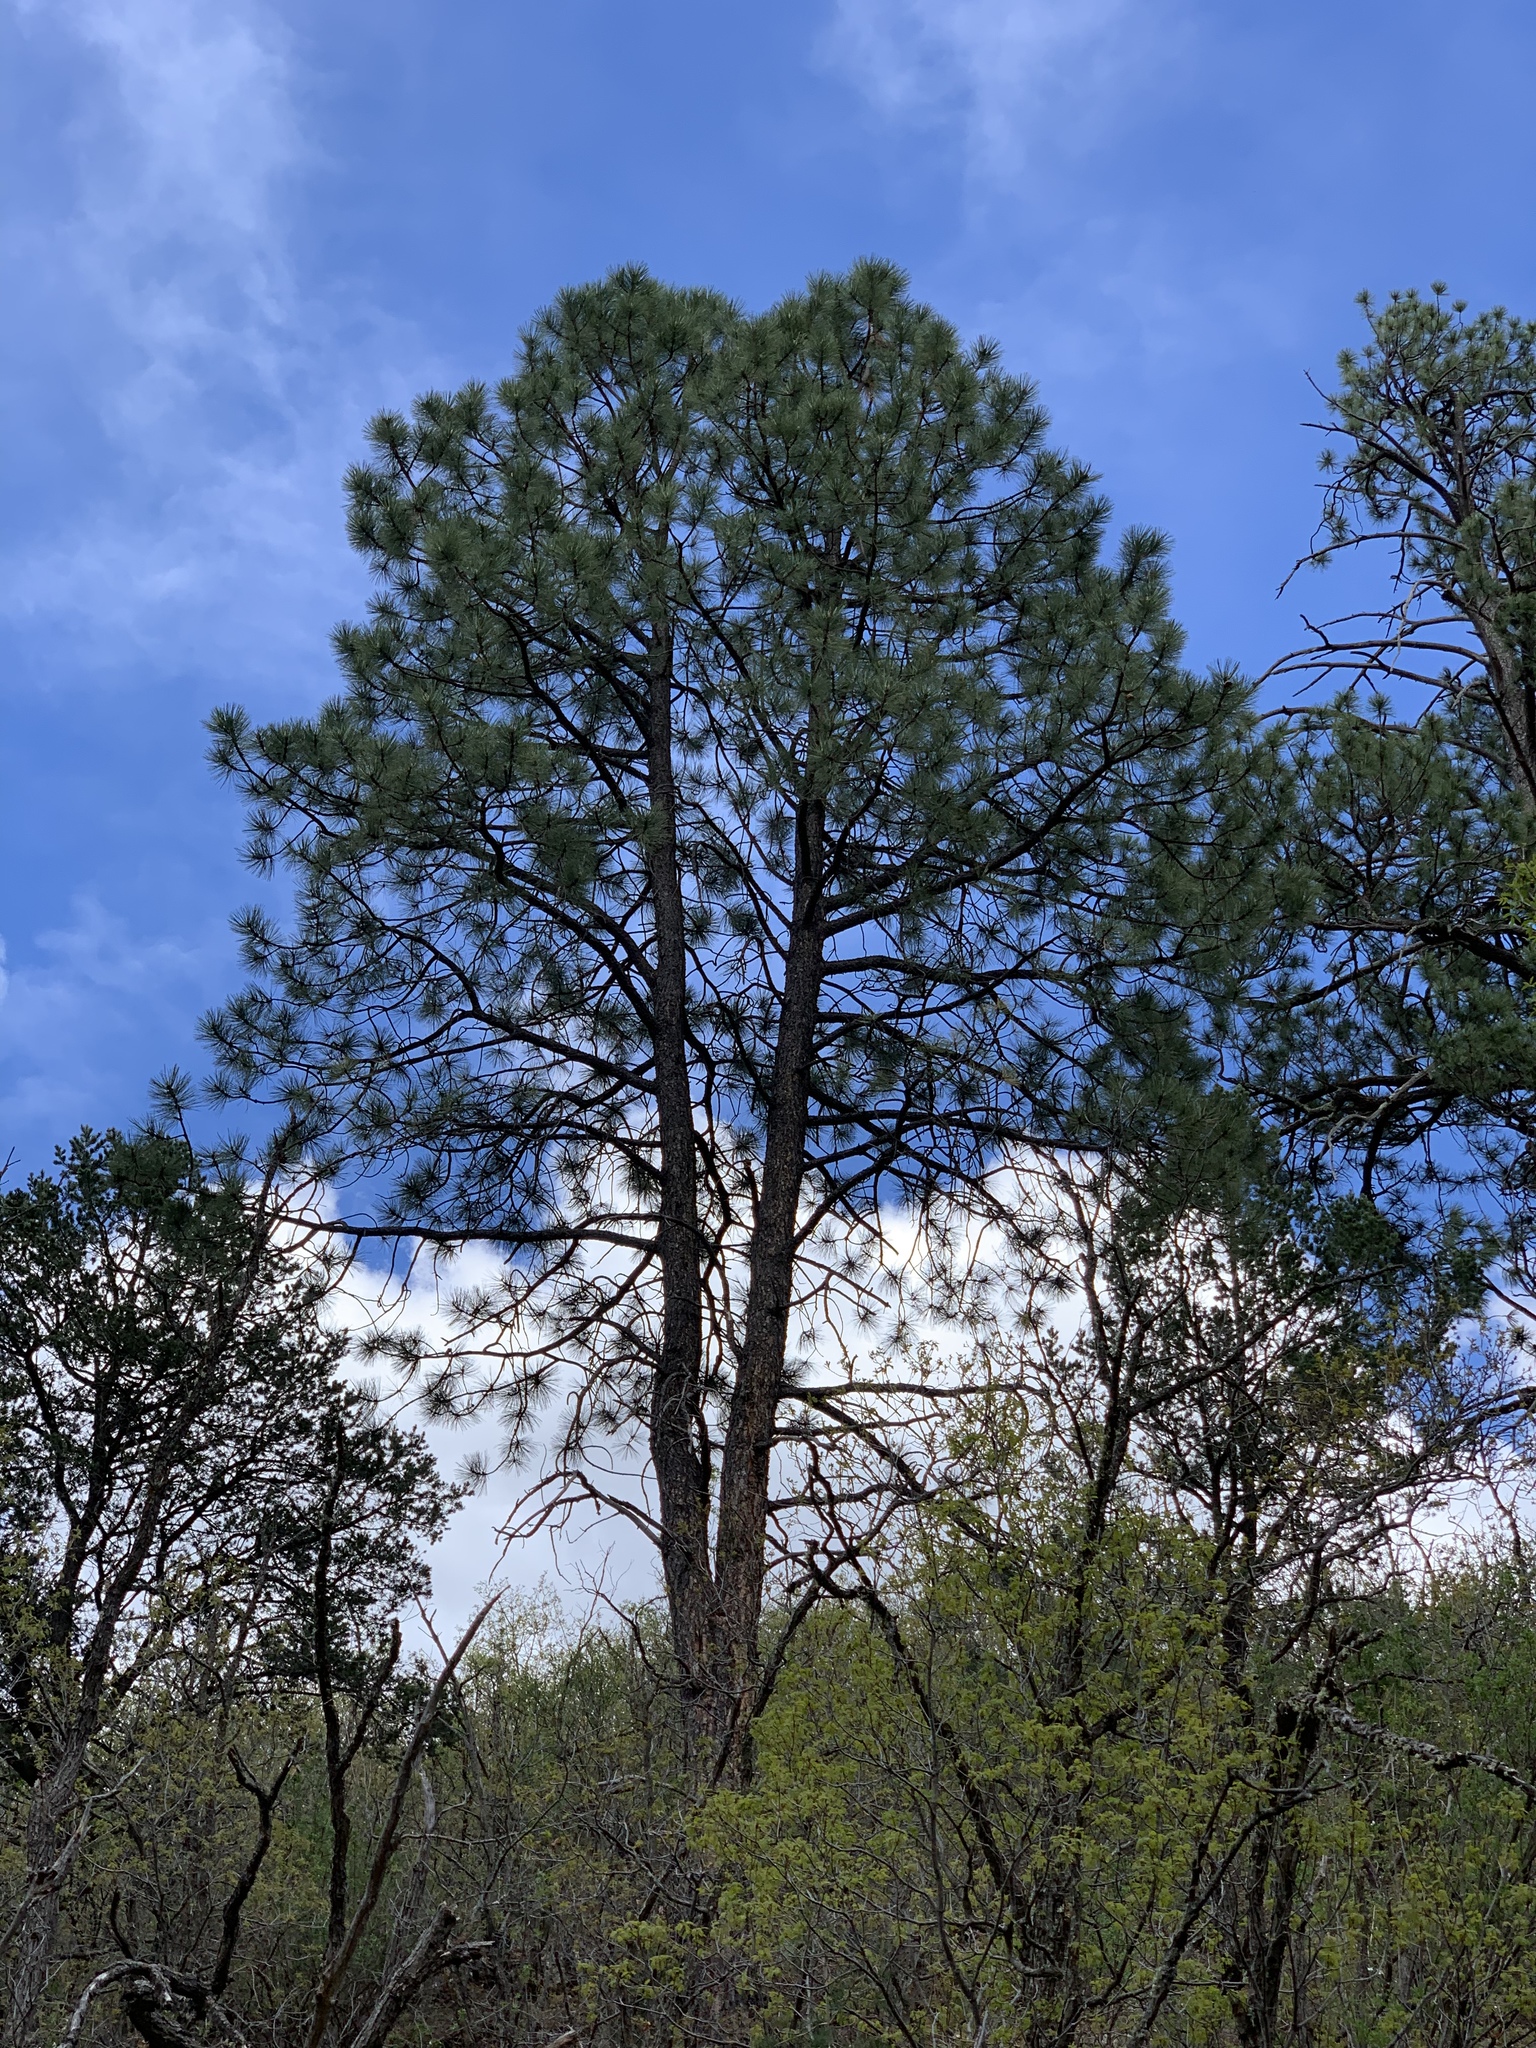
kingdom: Plantae
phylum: Tracheophyta
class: Pinopsida
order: Pinales
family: Pinaceae
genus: Pinus
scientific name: Pinus ponderosa
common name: Western yellow-pine
